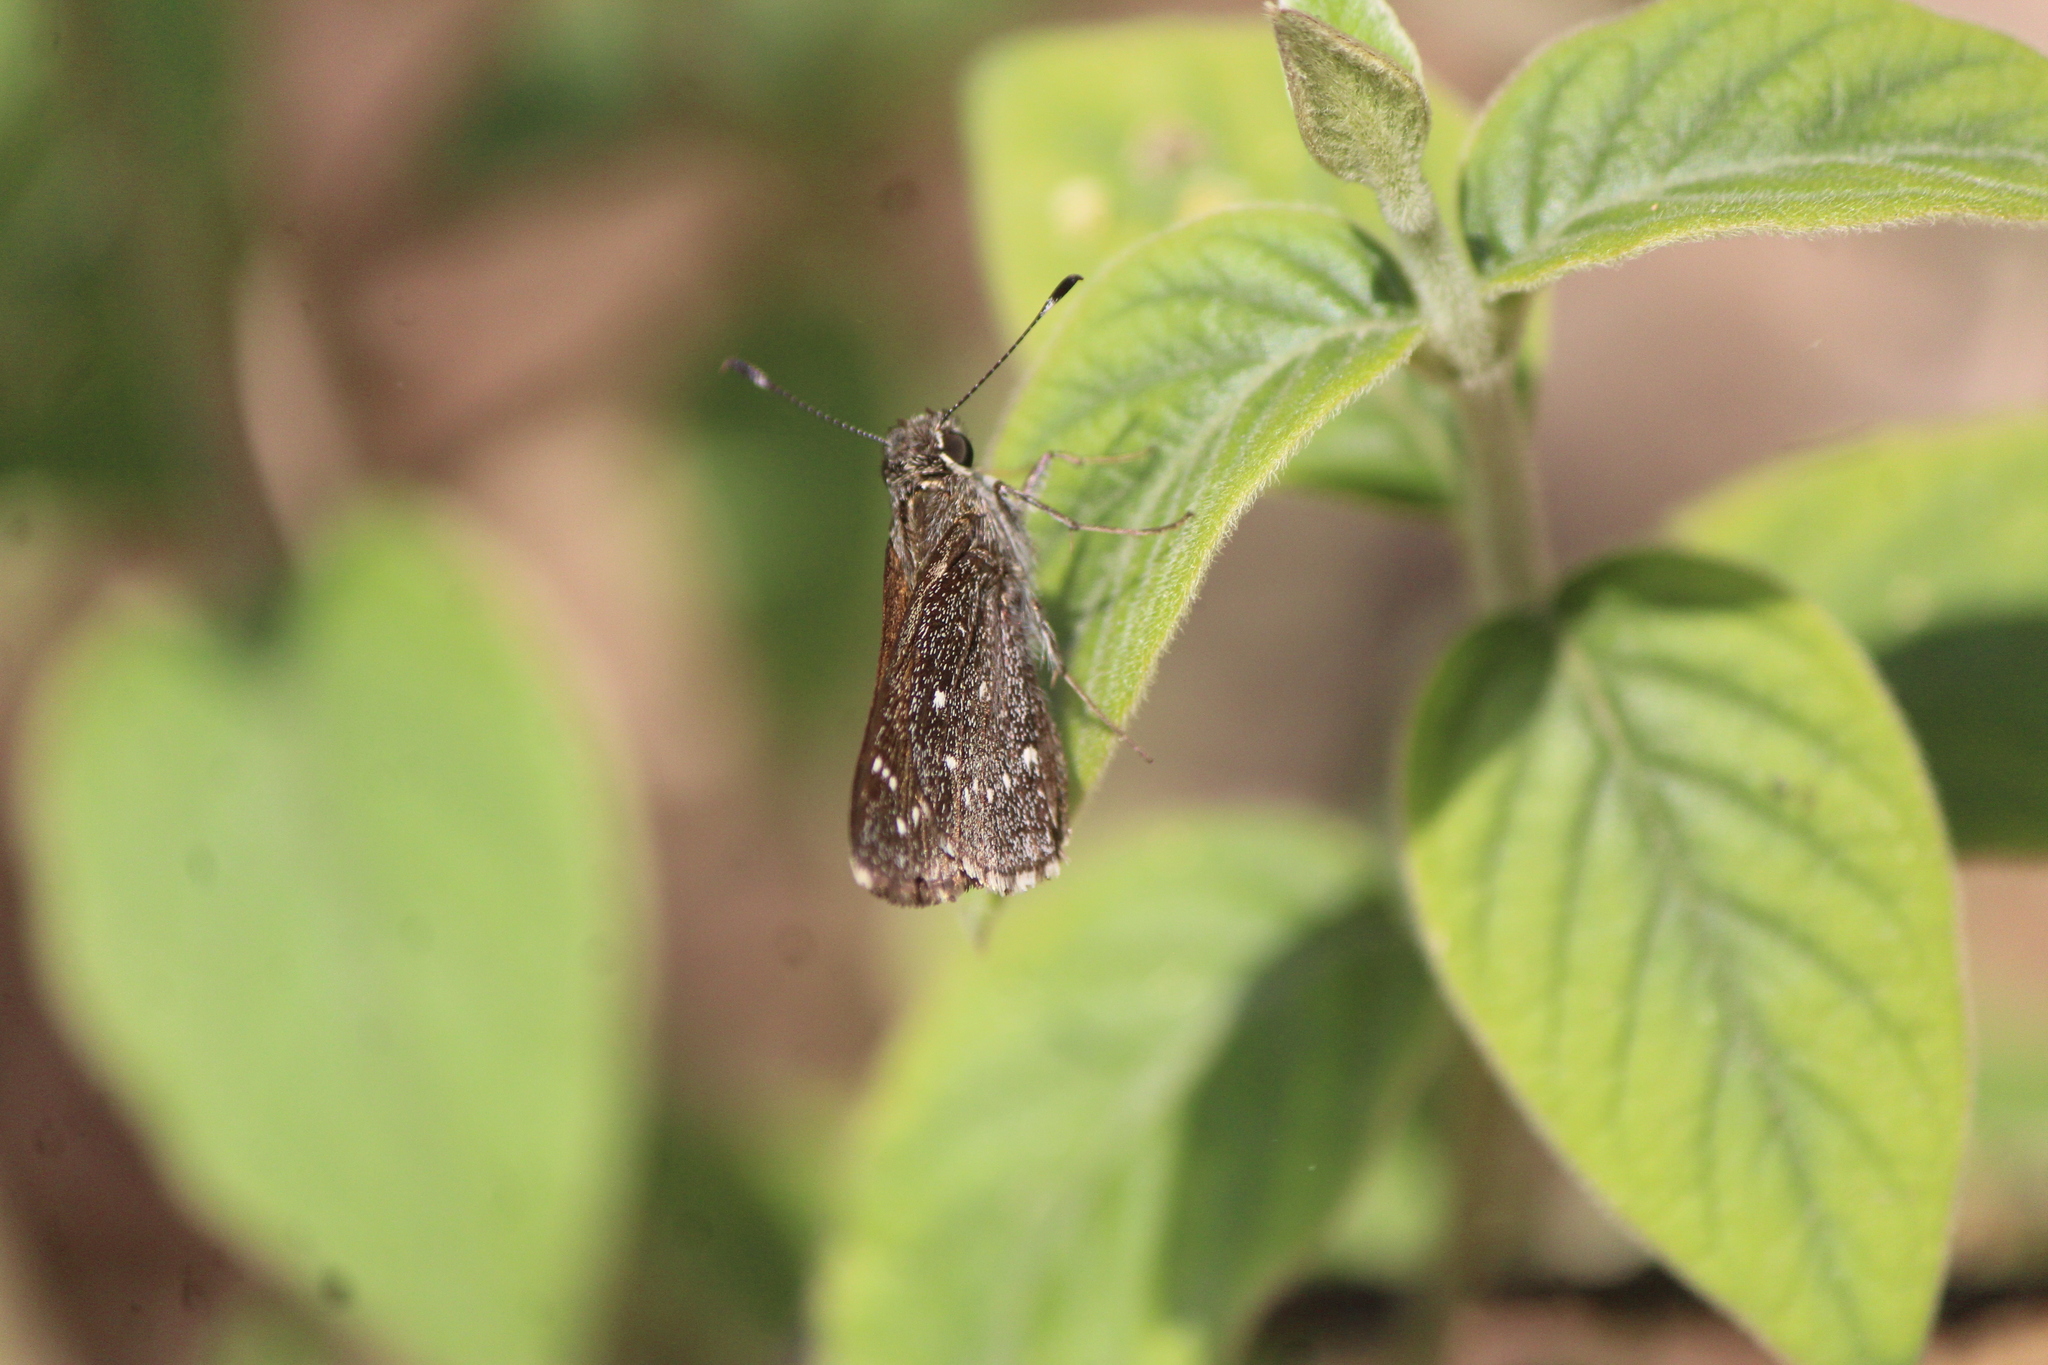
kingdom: Animalia
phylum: Arthropoda
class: Insecta
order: Lepidoptera
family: Hesperiidae
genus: Mastor
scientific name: Mastor exoteria
